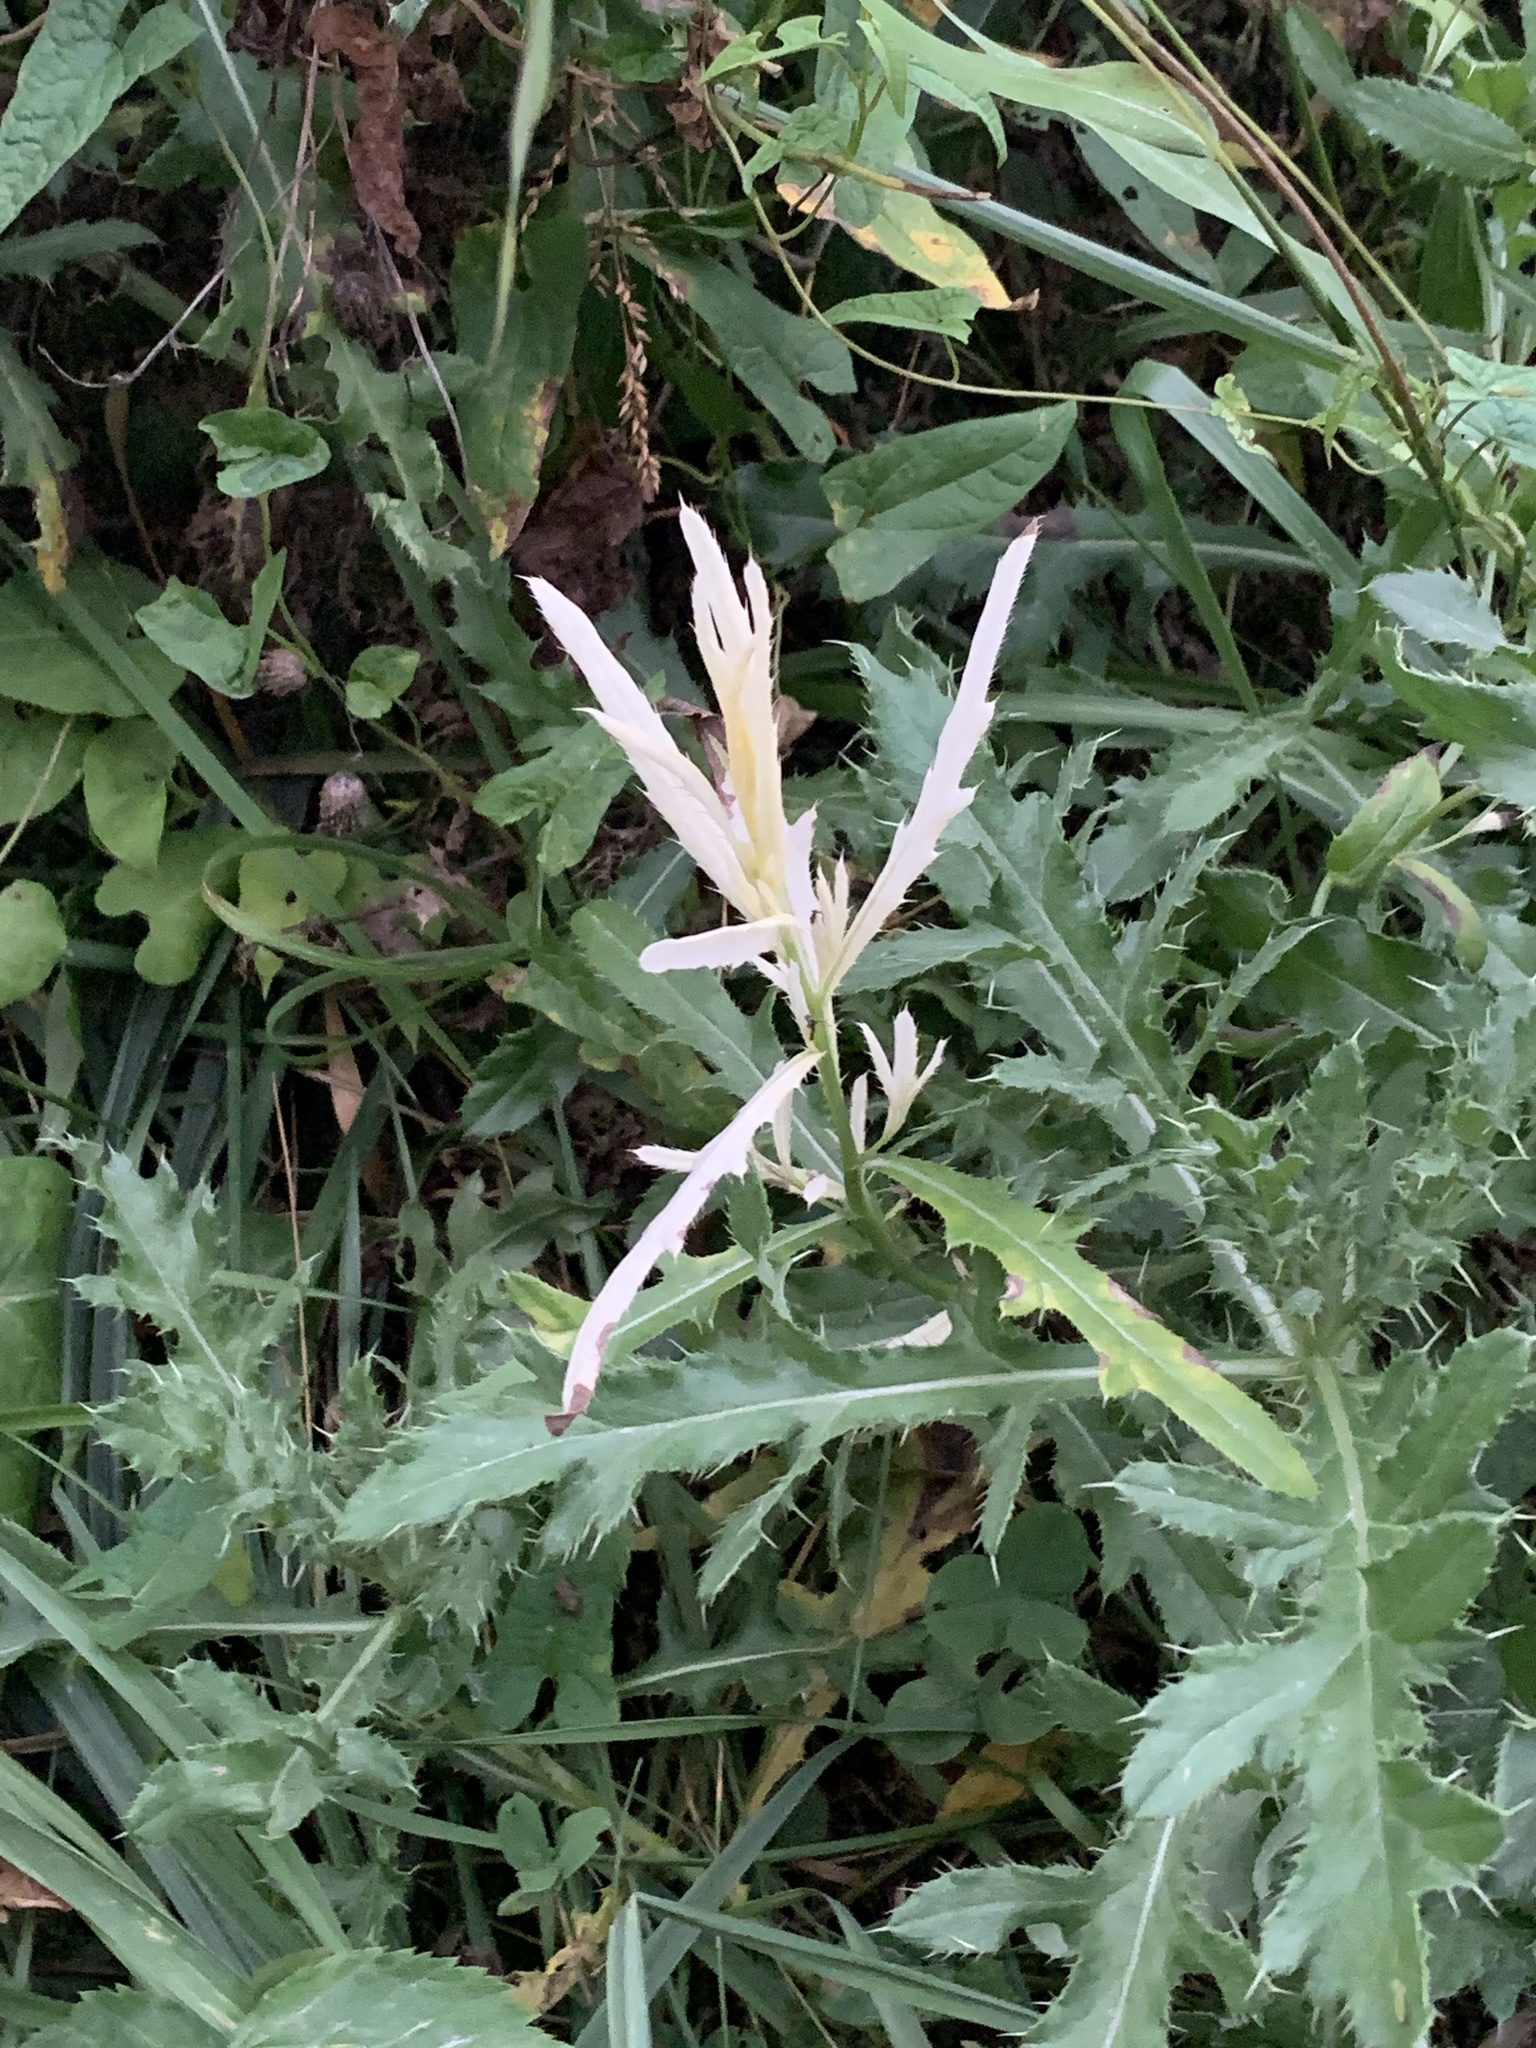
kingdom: Bacteria
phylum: Proteobacteria
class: Gammaproteobacteria
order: Pseudomonadales
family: Pseudomonadaceae
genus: Pseudomonas
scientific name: Pseudomonas syringae
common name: Bacterial speck
